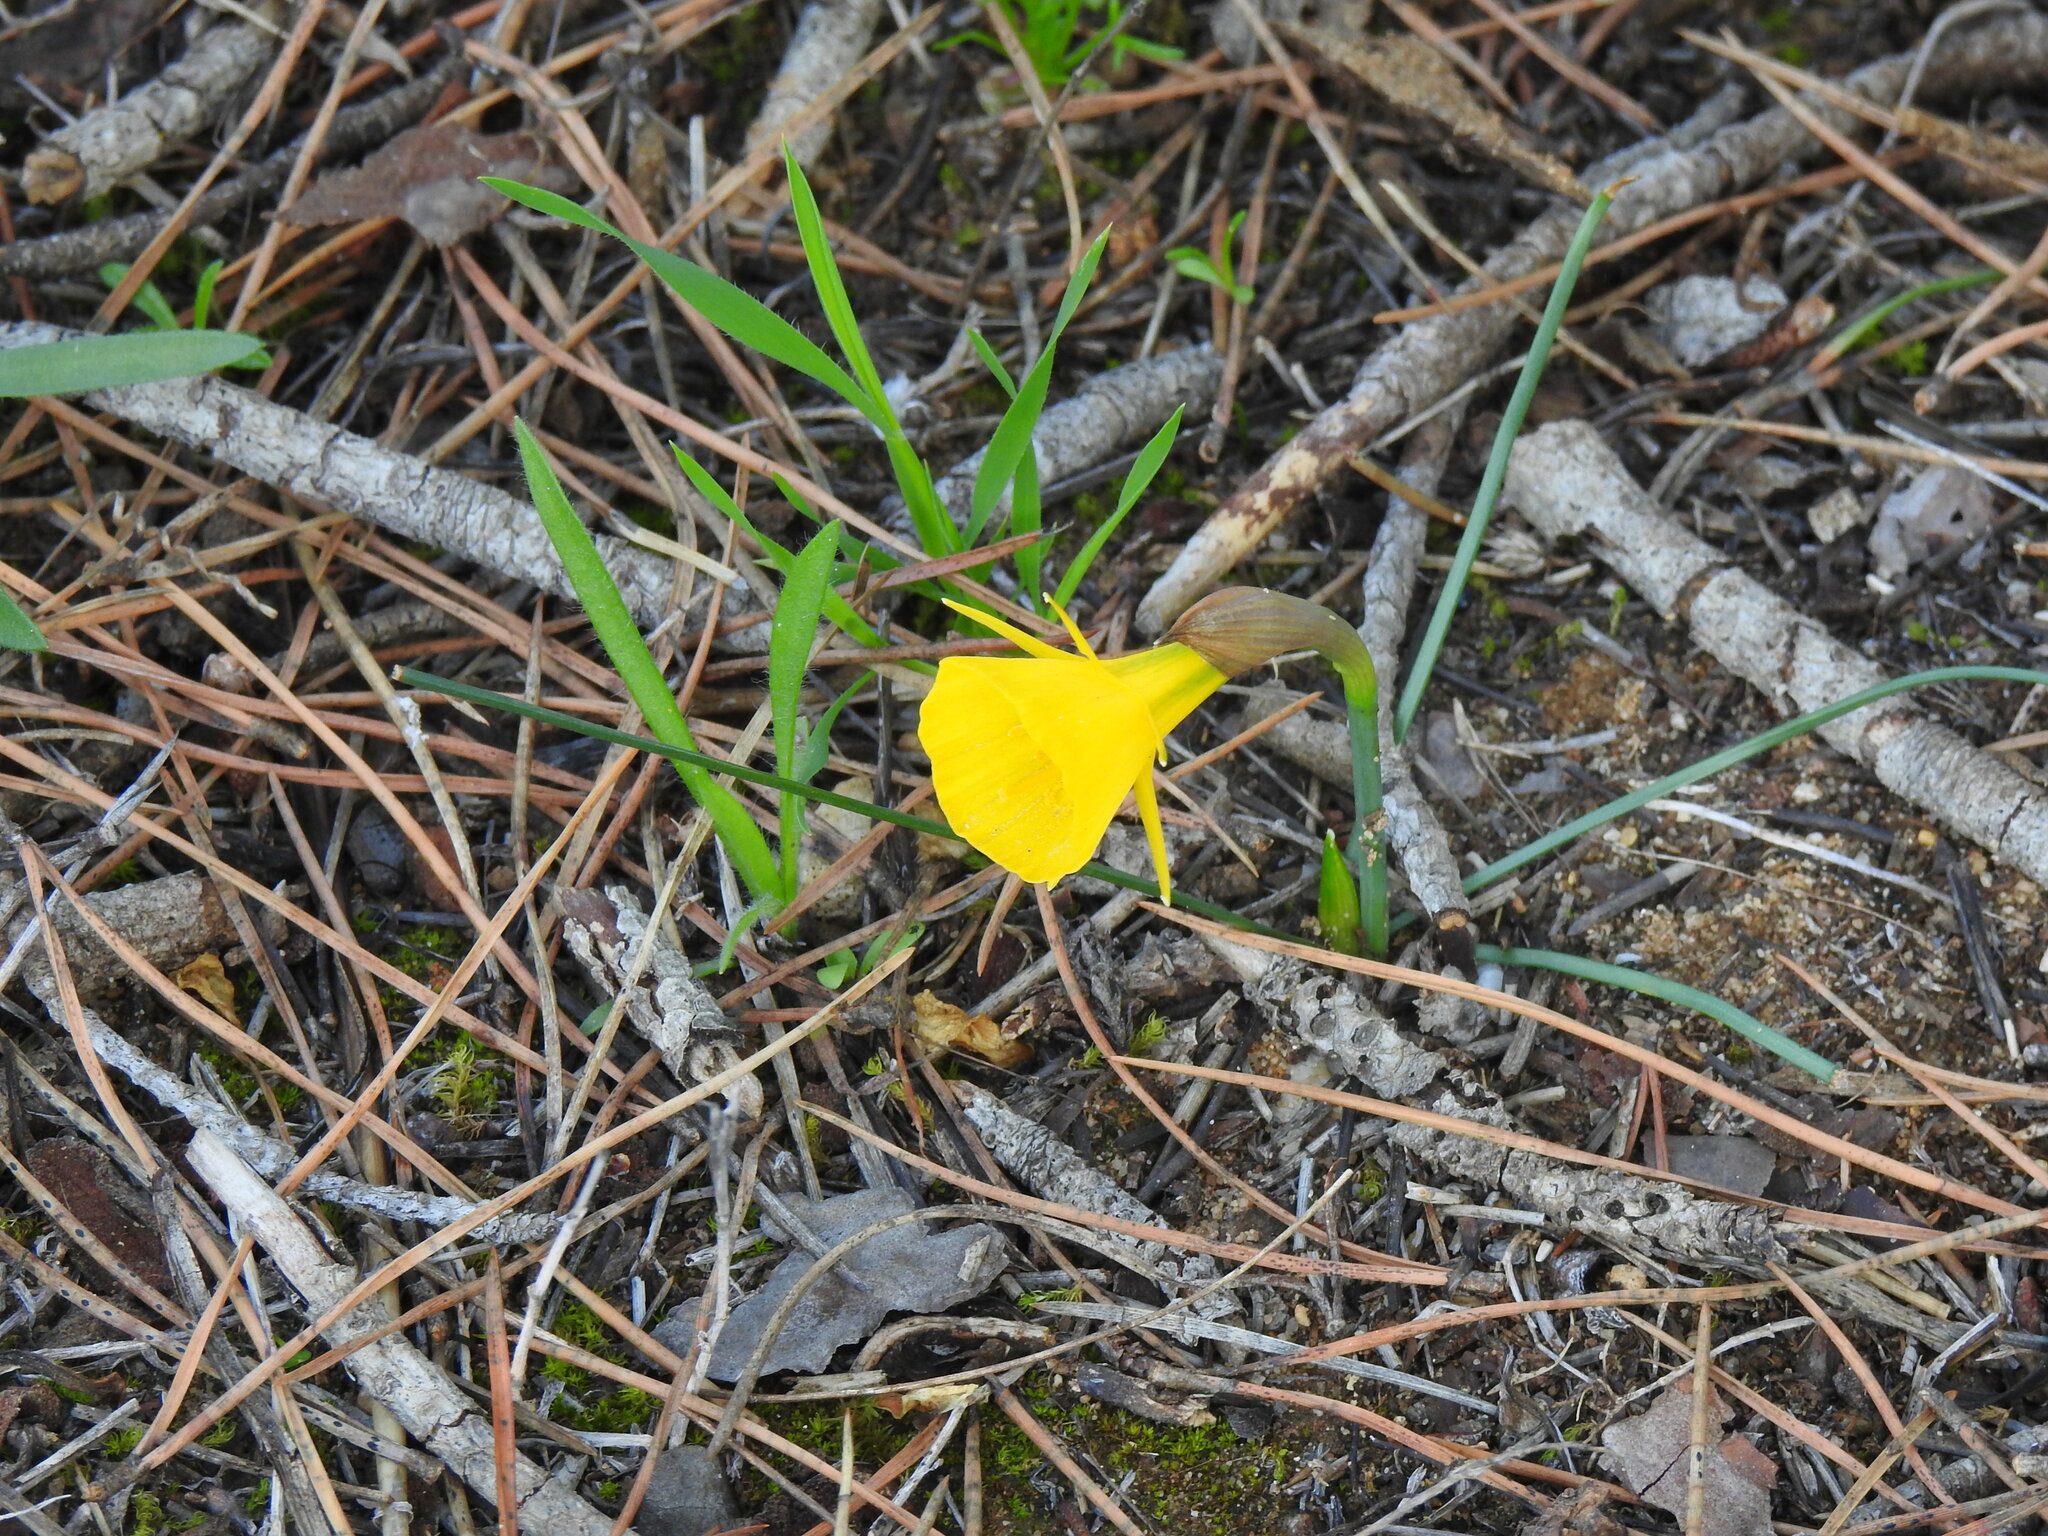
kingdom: Plantae
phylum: Tracheophyta
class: Liliopsida
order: Asparagales
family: Amaryllidaceae
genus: Narcissus
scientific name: Narcissus bulbocodium
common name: Hoop-petticoat daffodil
